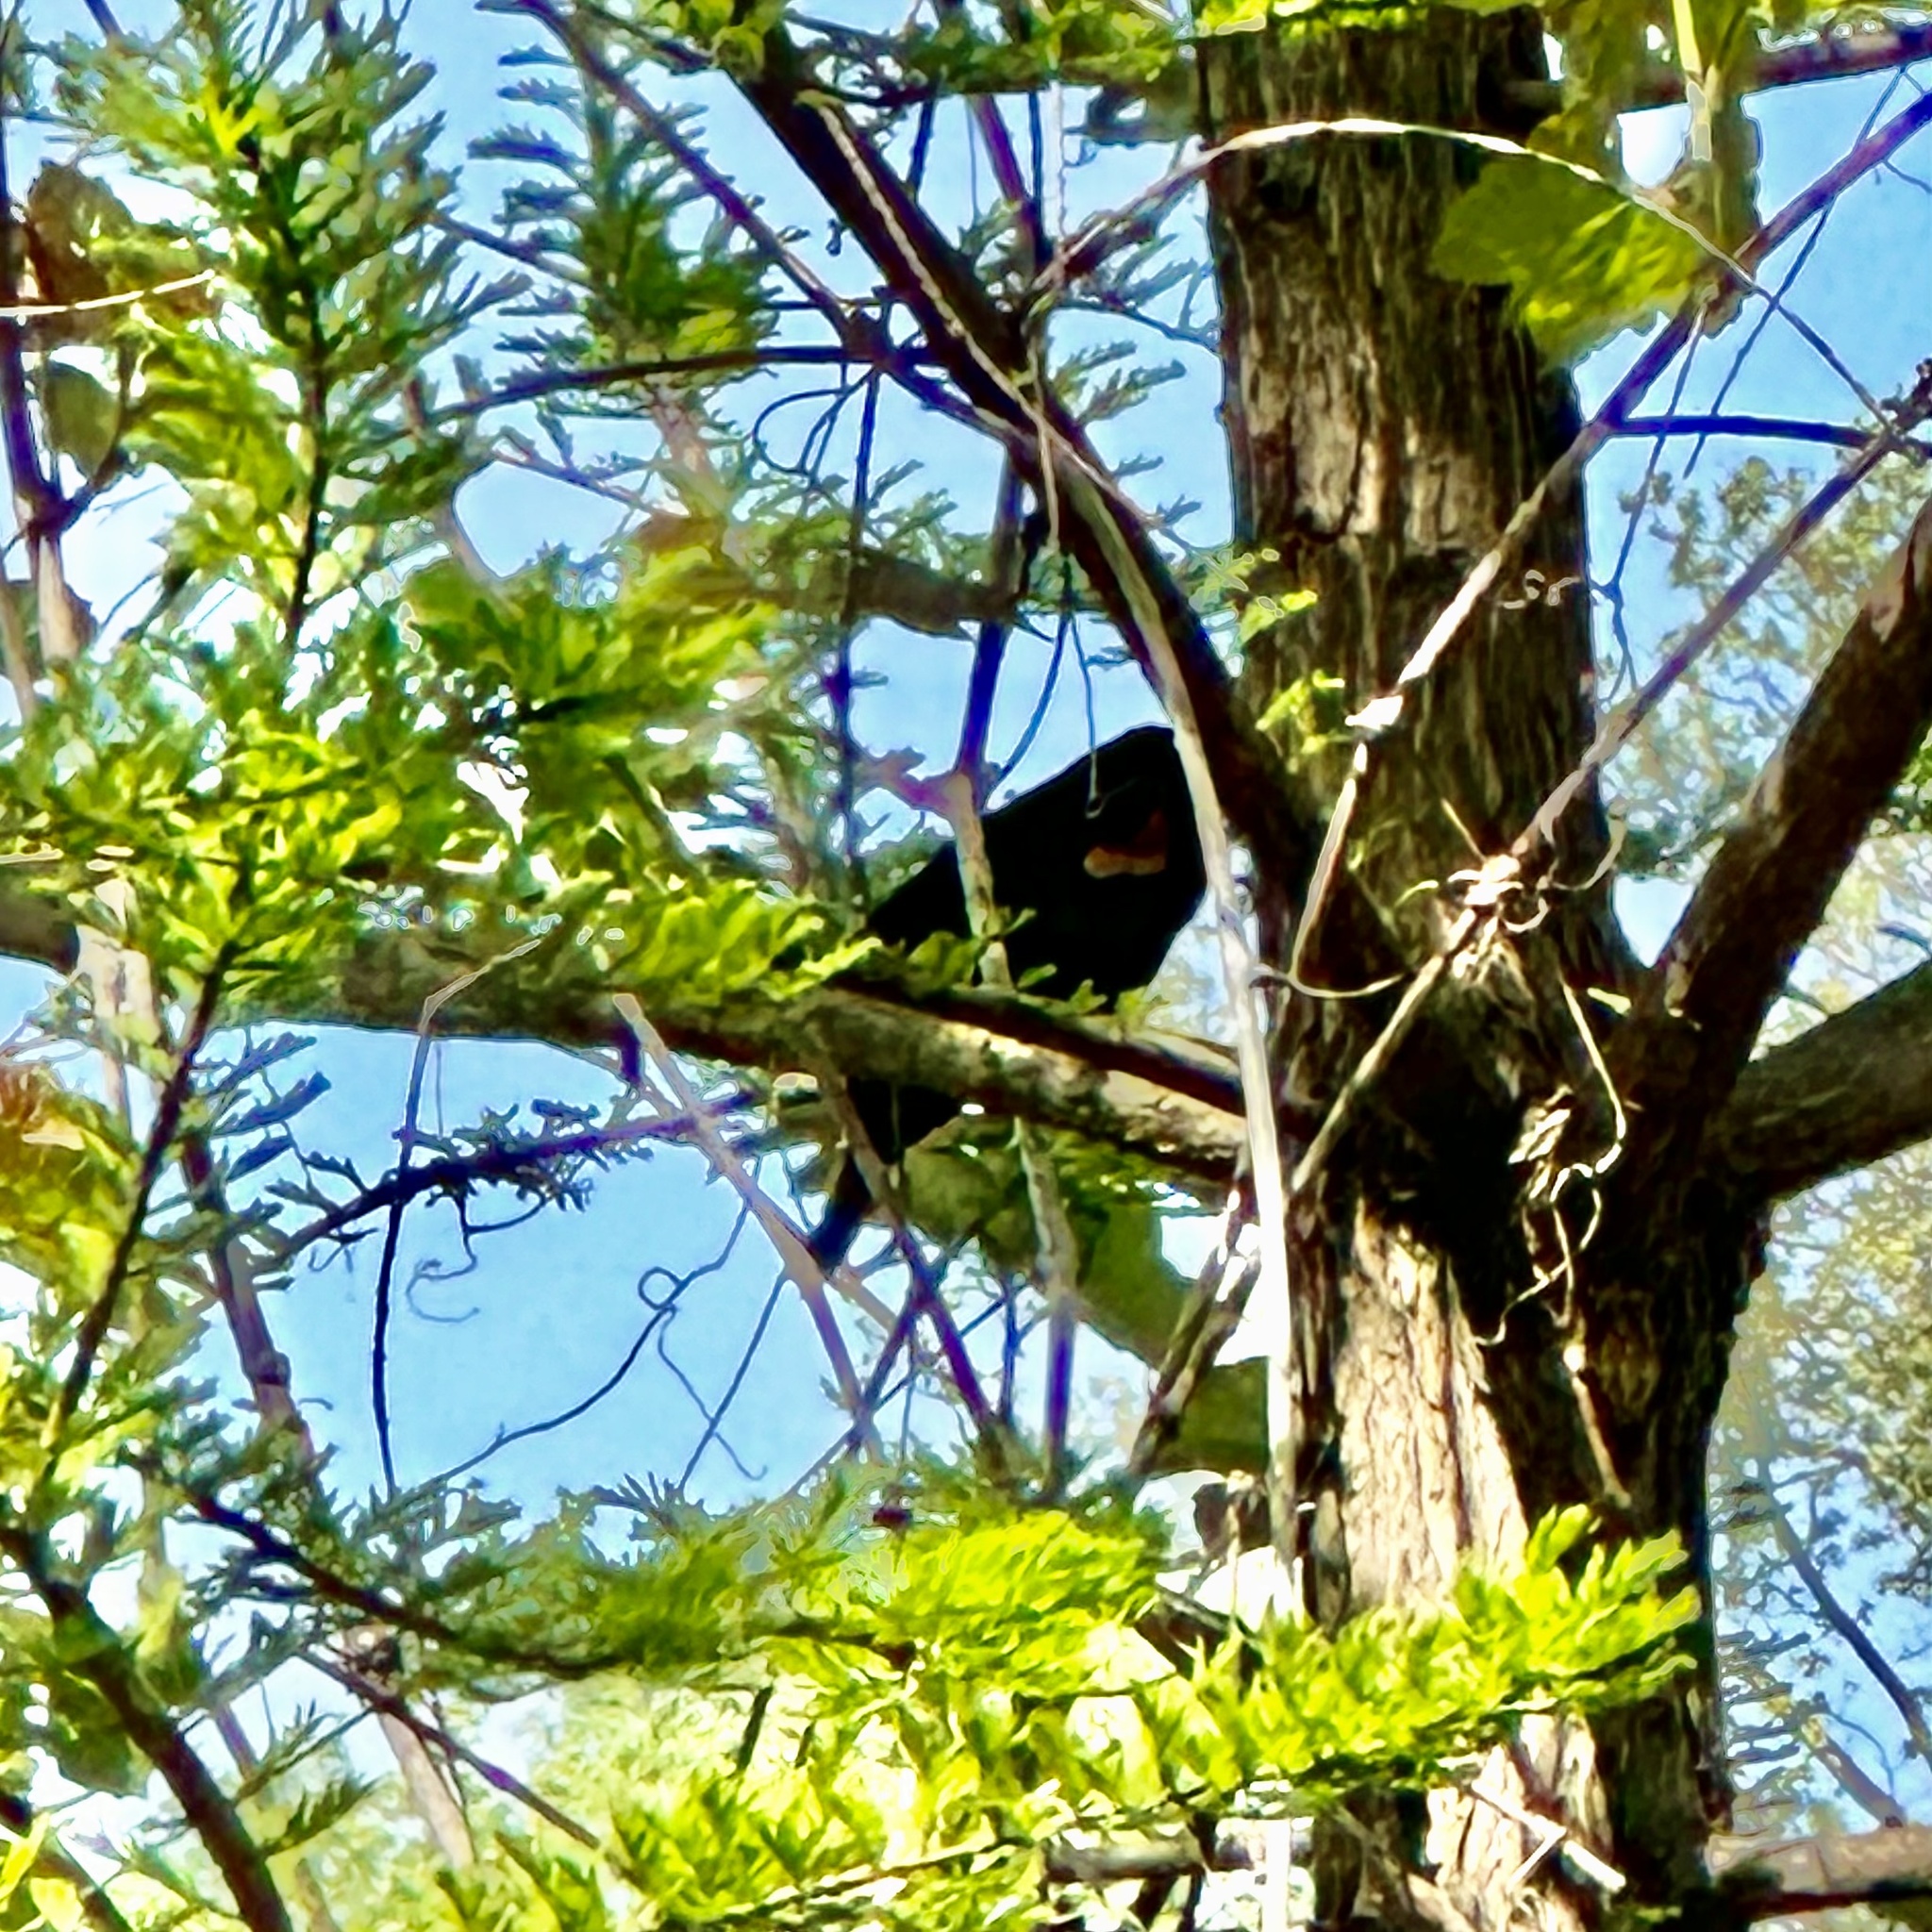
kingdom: Animalia
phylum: Chordata
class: Aves
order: Passeriformes
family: Icteridae
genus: Agelaius
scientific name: Agelaius phoeniceus
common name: Red-winged blackbird
